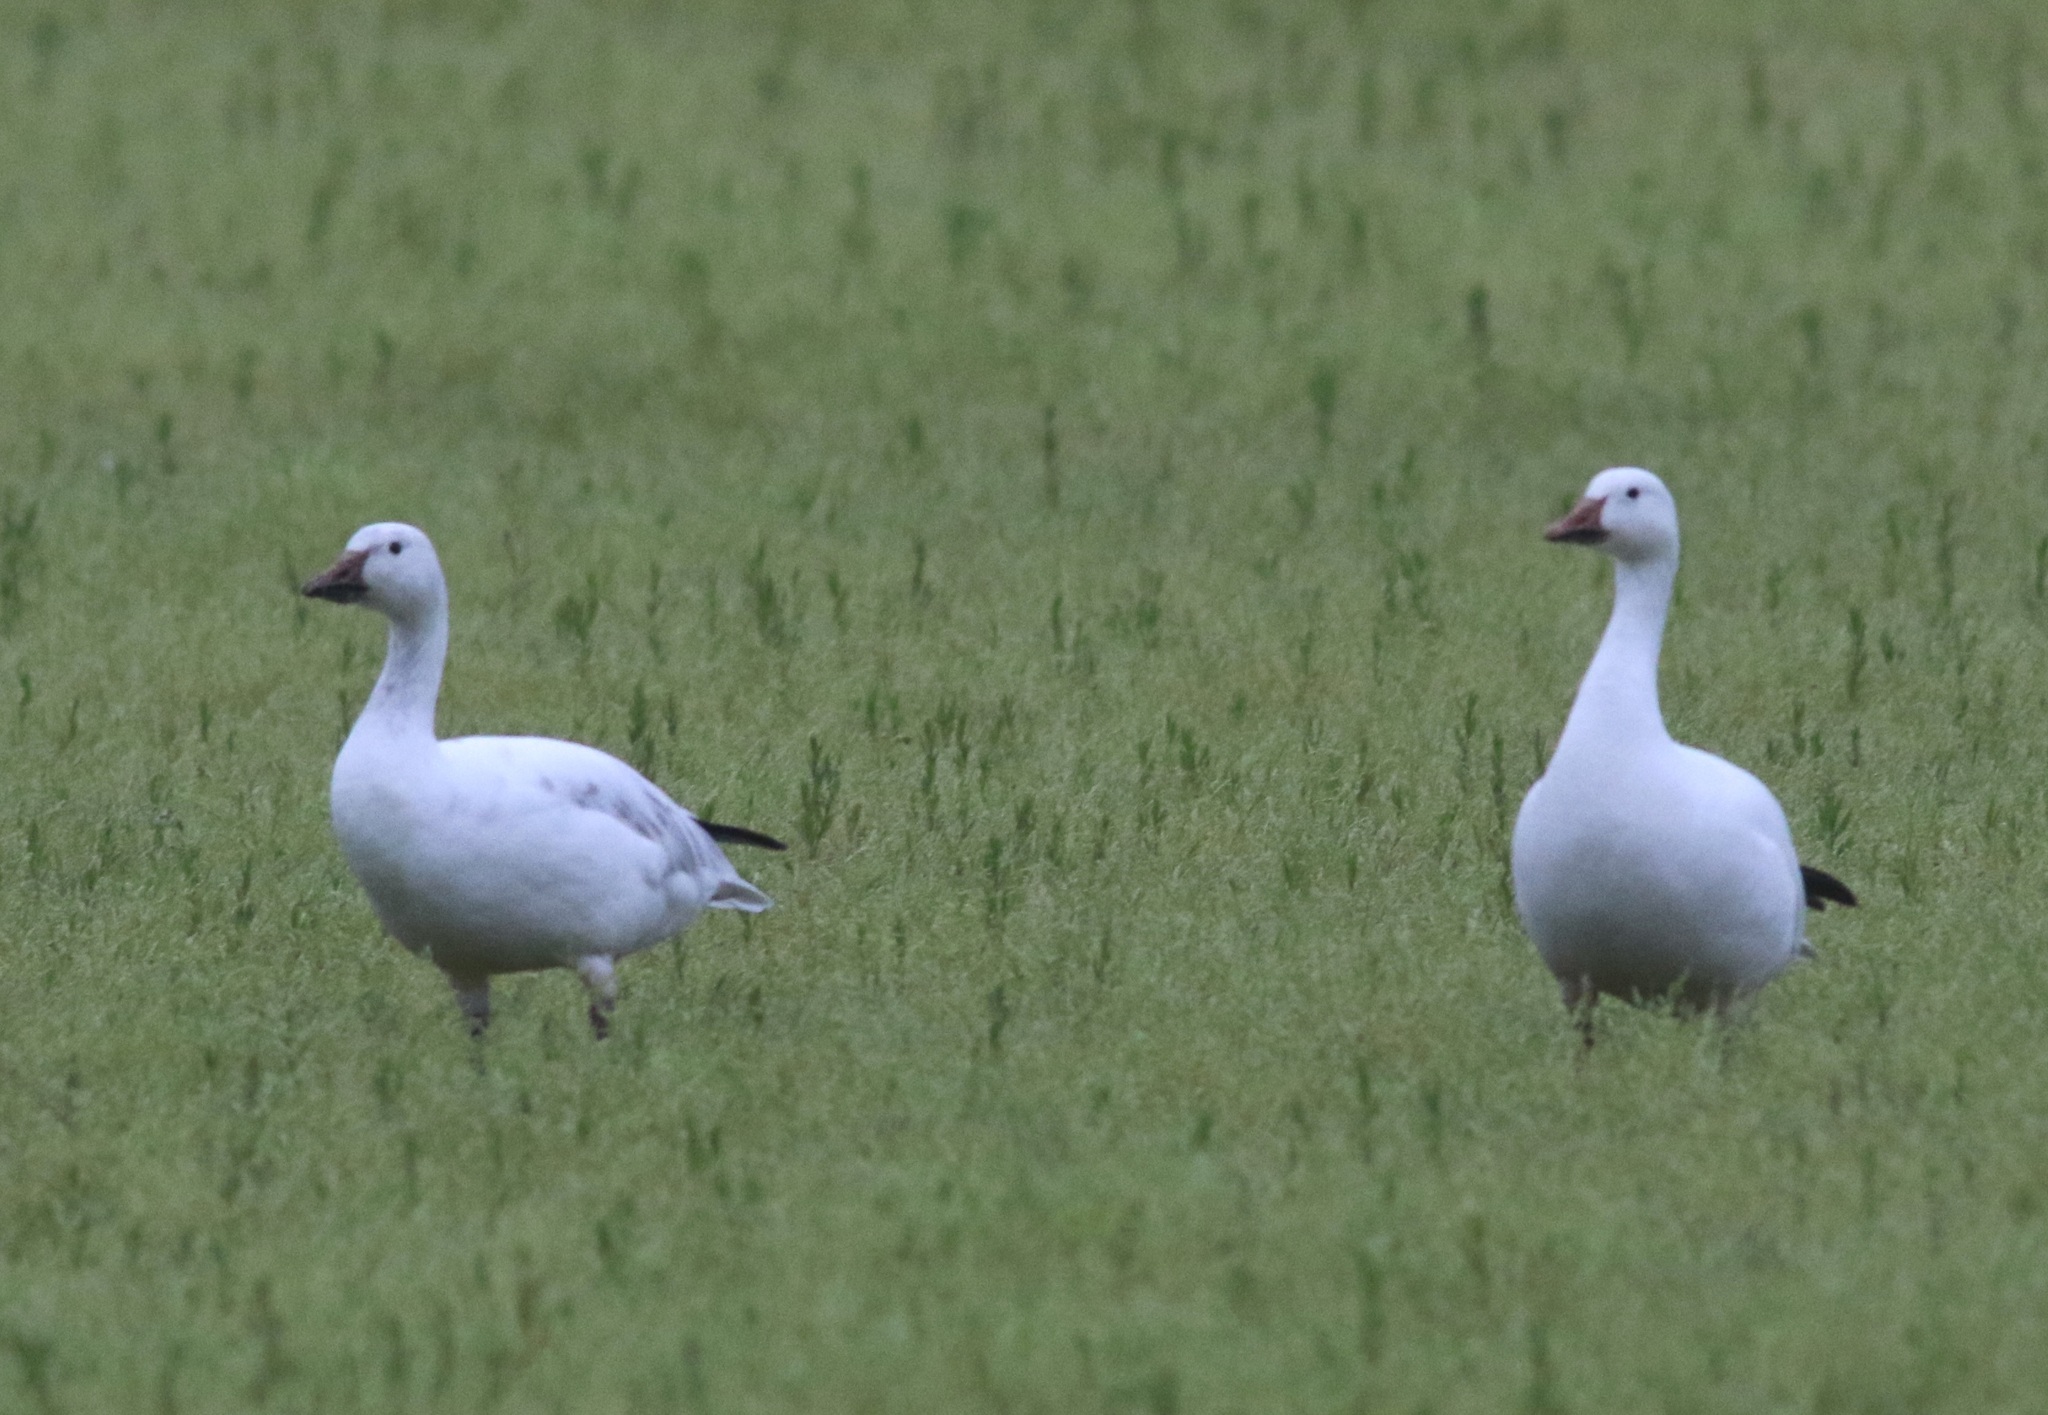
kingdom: Animalia
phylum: Chordata
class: Aves
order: Anseriformes
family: Anatidae
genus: Anser
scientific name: Anser caerulescens
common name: Snow goose
